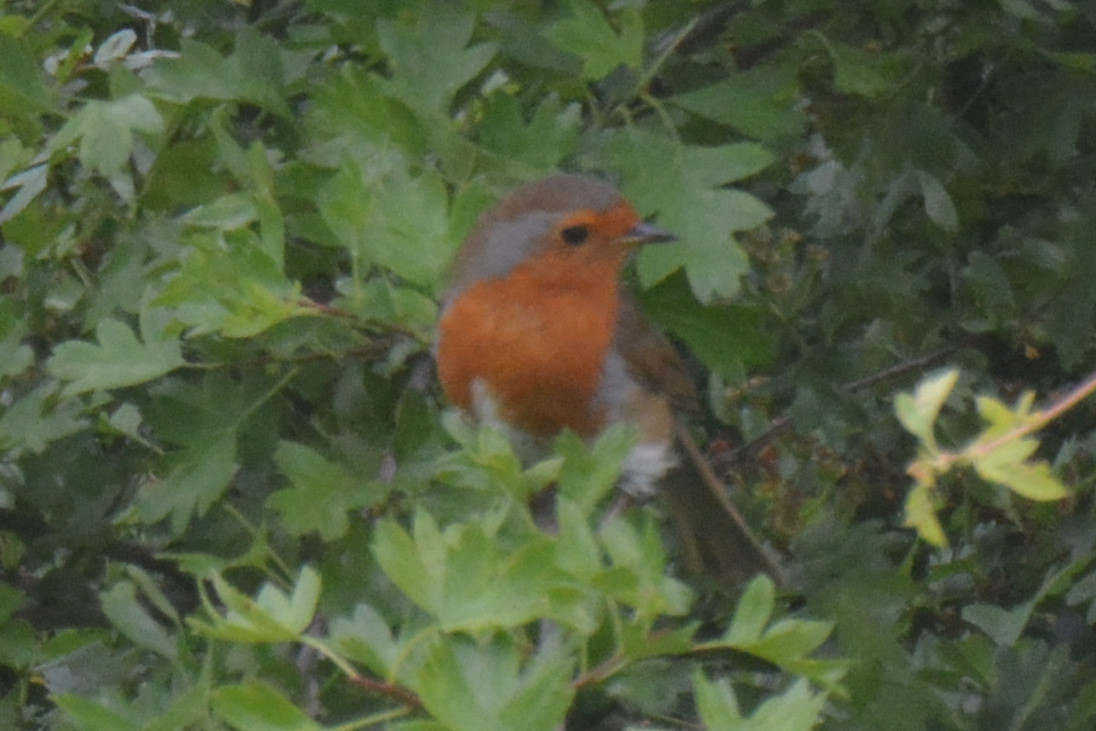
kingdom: Animalia
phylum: Chordata
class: Aves
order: Passeriformes
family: Muscicapidae
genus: Erithacus
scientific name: Erithacus rubecula
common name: European robin
